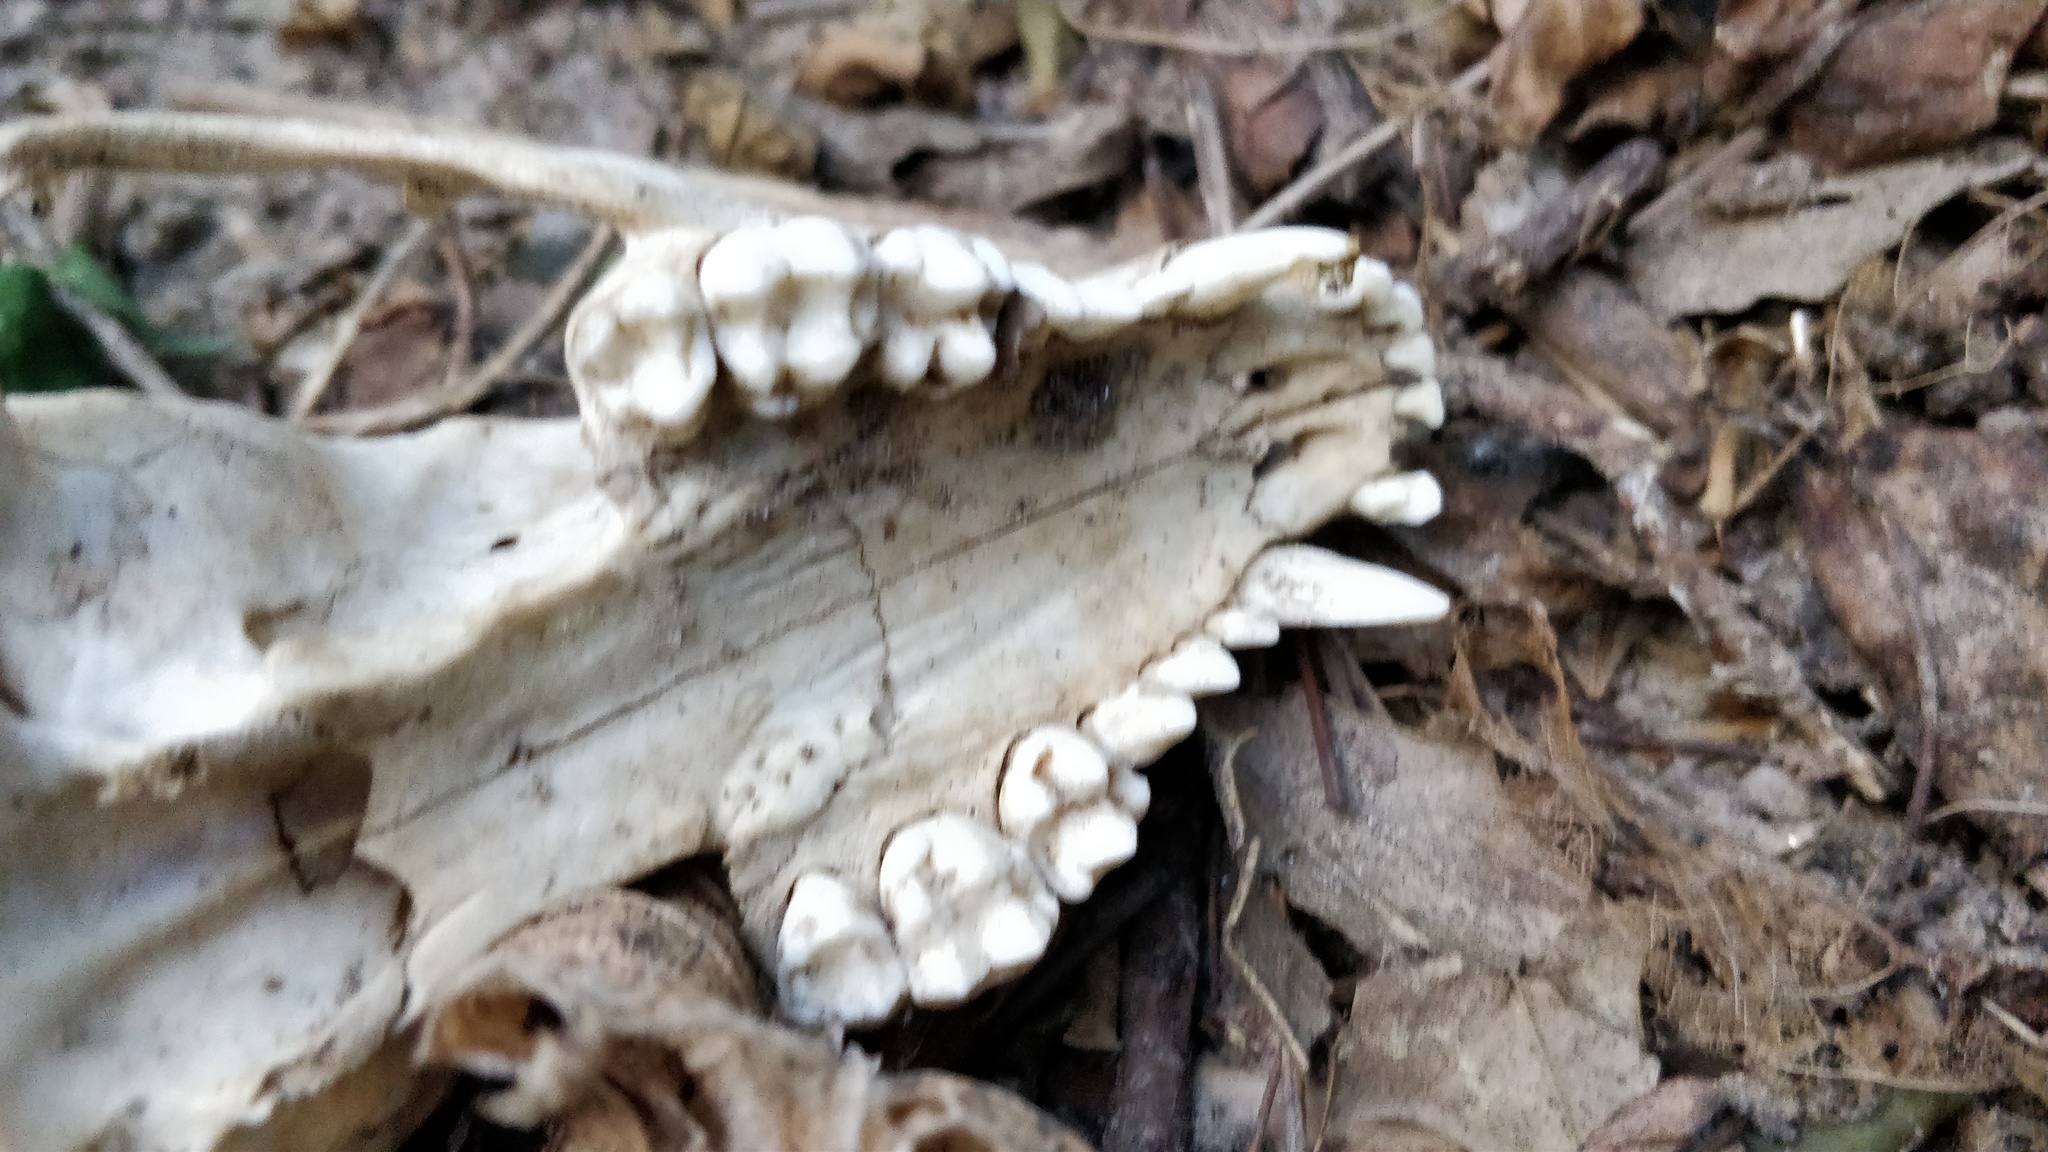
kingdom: Animalia
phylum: Chordata
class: Mammalia
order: Carnivora
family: Procyonidae
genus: Procyon
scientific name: Procyon lotor
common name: Raccoon
